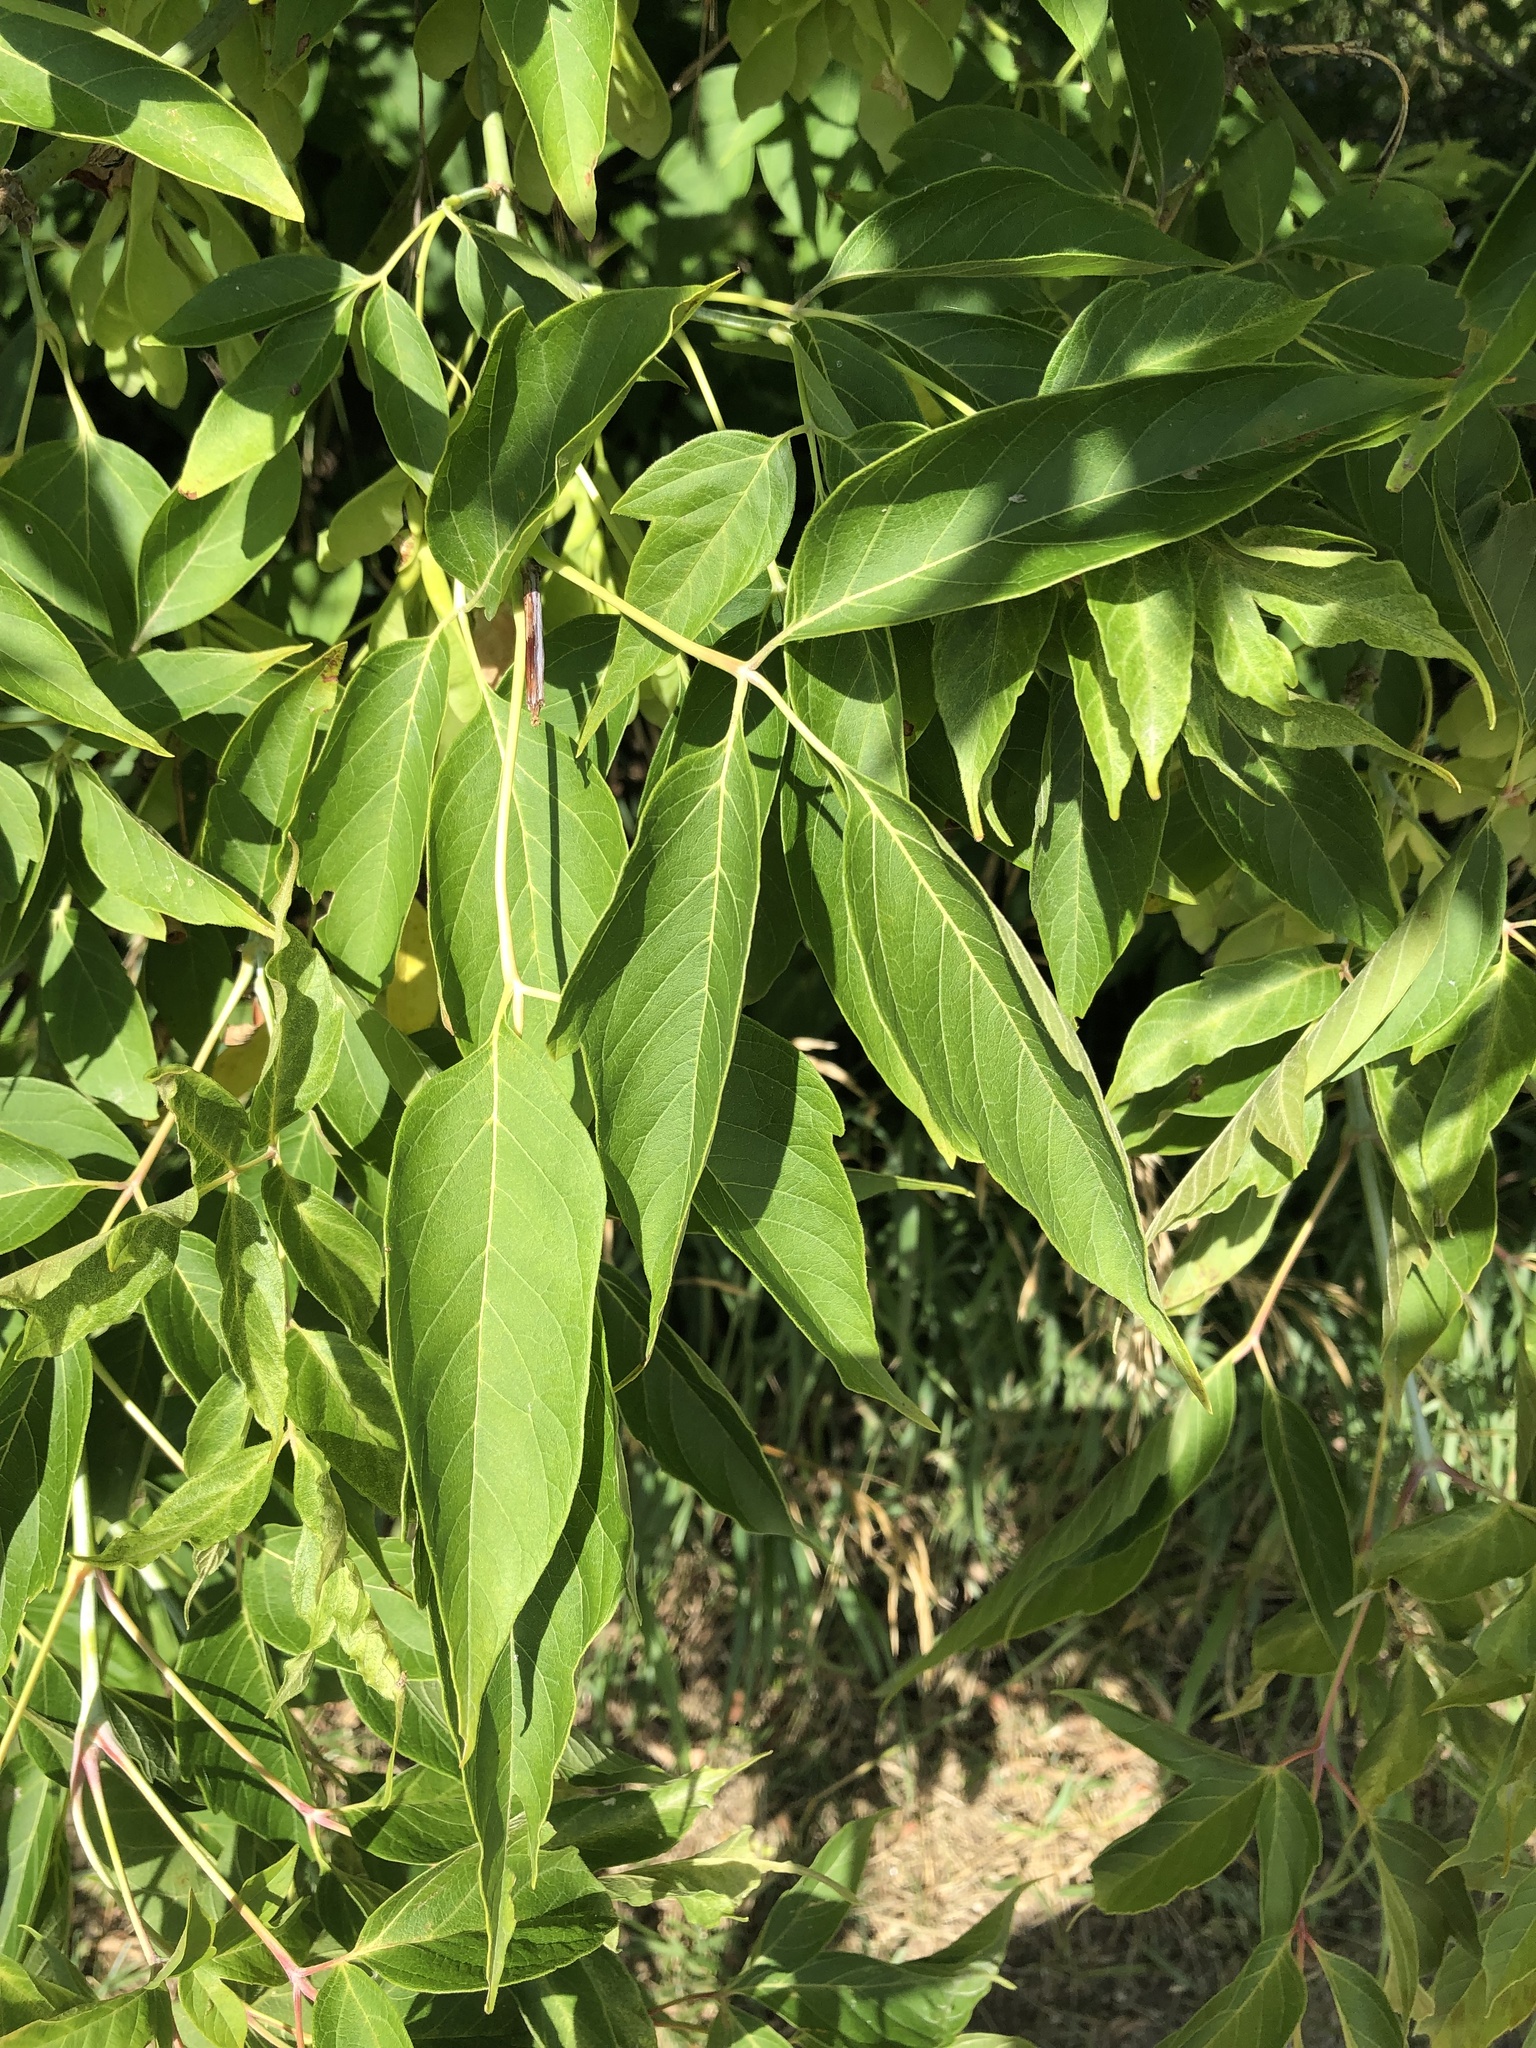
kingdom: Plantae
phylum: Tracheophyta
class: Magnoliopsida
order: Sapindales
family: Sapindaceae
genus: Acer
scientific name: Acer negundo
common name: Ashleaf maple
